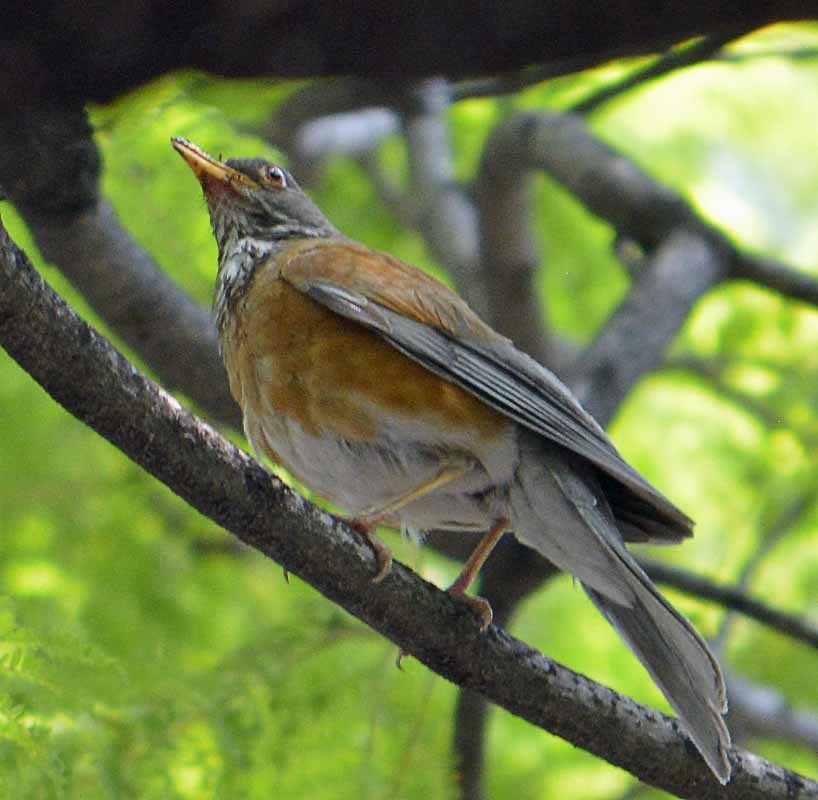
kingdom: Animalia
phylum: Chordata
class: Aves
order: Passeriformes
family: Turdidae
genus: Turdus
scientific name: Turdus rufopalliatus
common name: Rufous-backed robin
